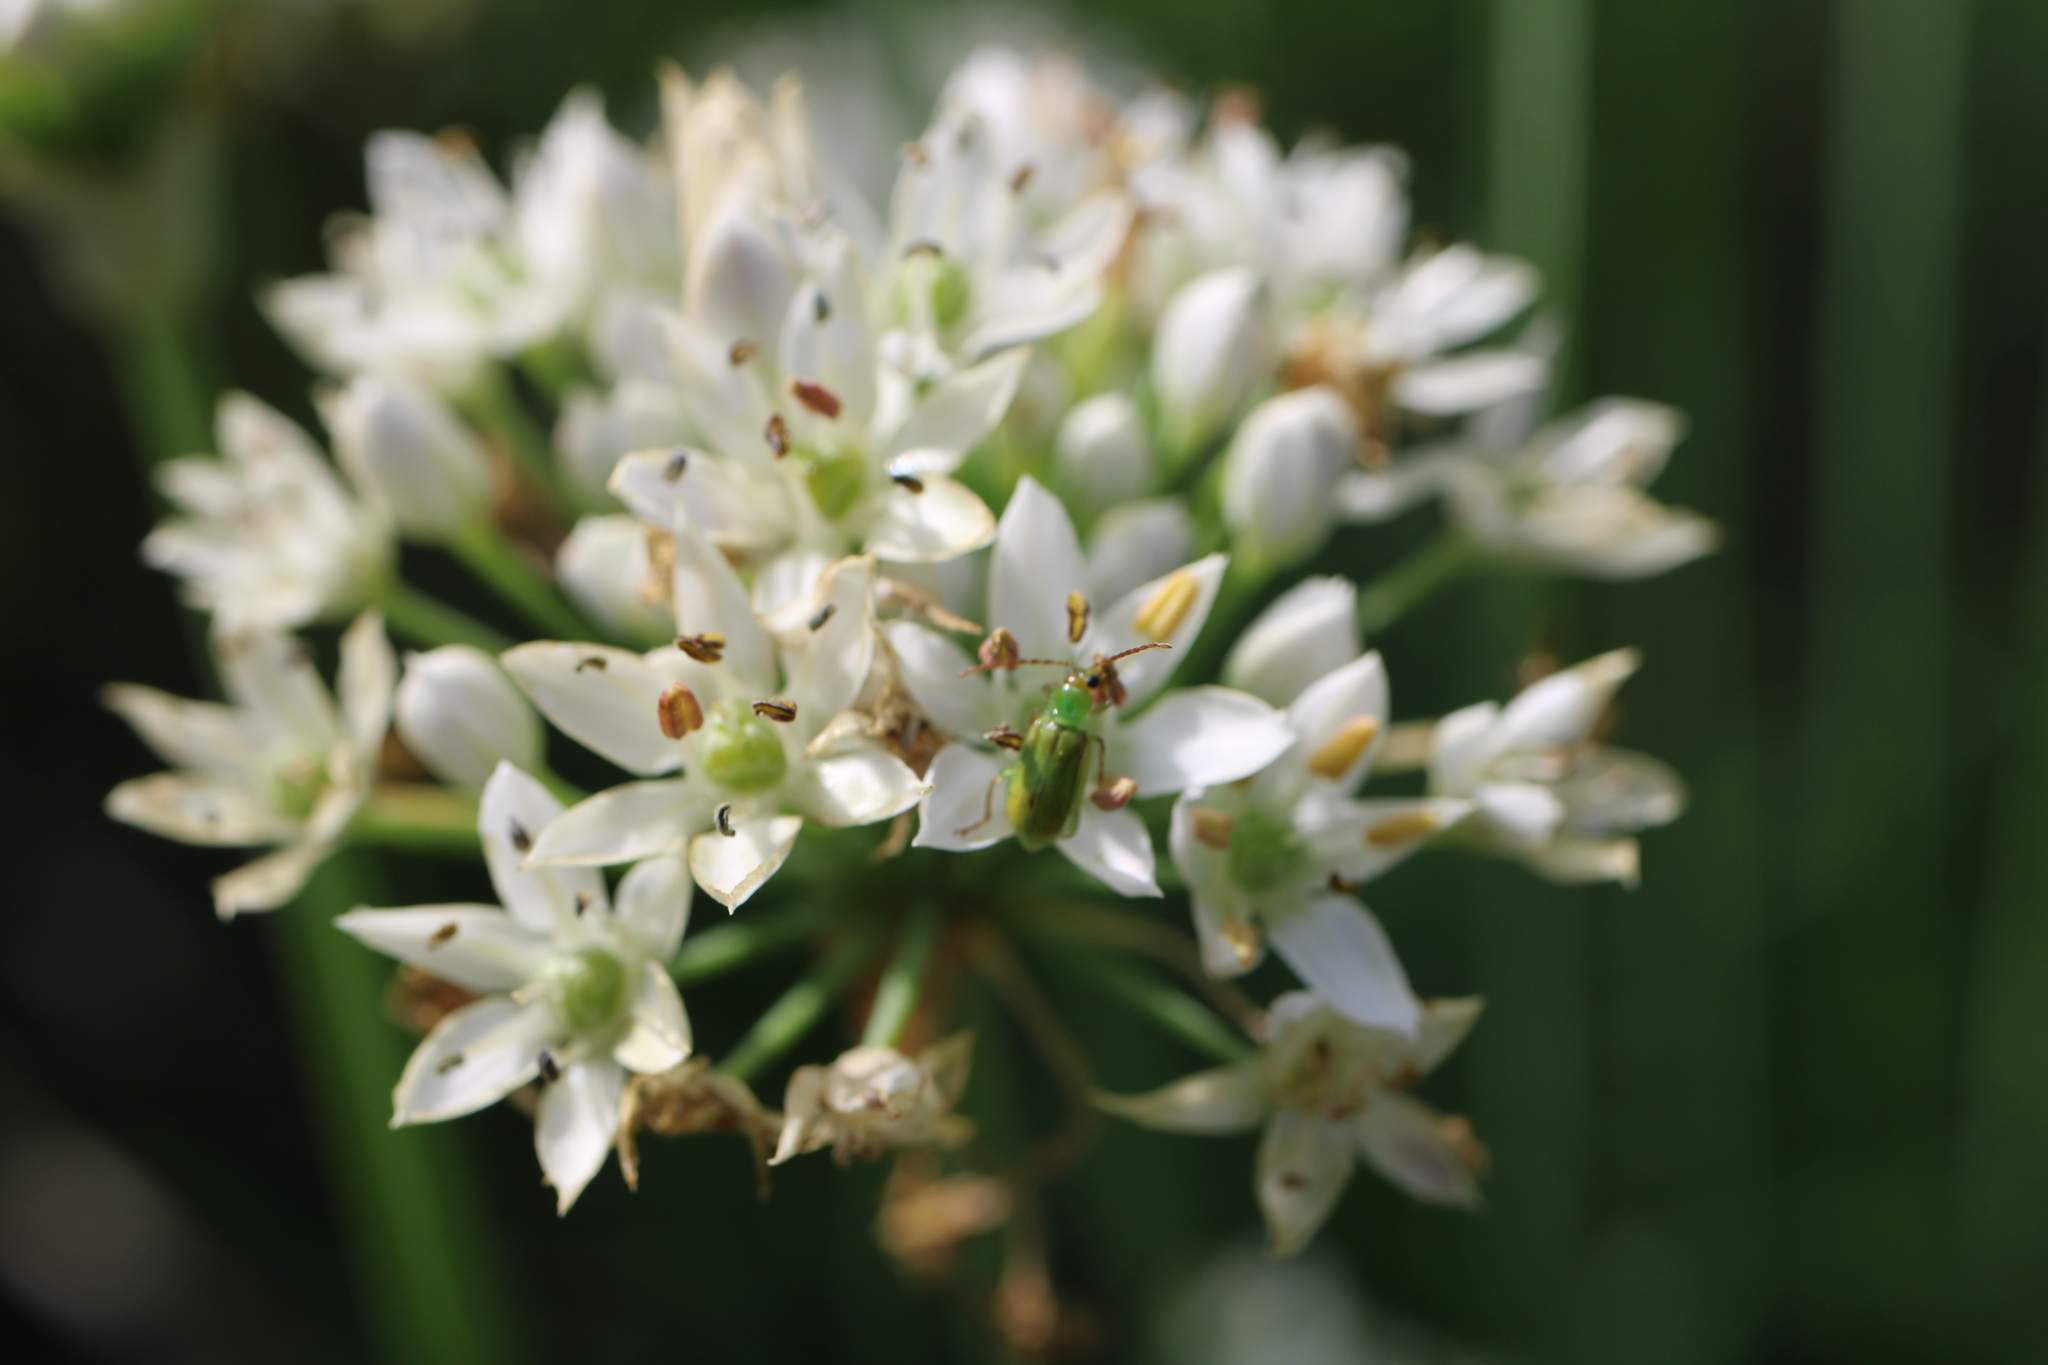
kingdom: Animalia
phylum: Arthropoda
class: Insecta
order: Coleoptera
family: Chrysomelidae
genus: Diabrotica
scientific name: Diabrotica barberi
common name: Northern corn rootworm
